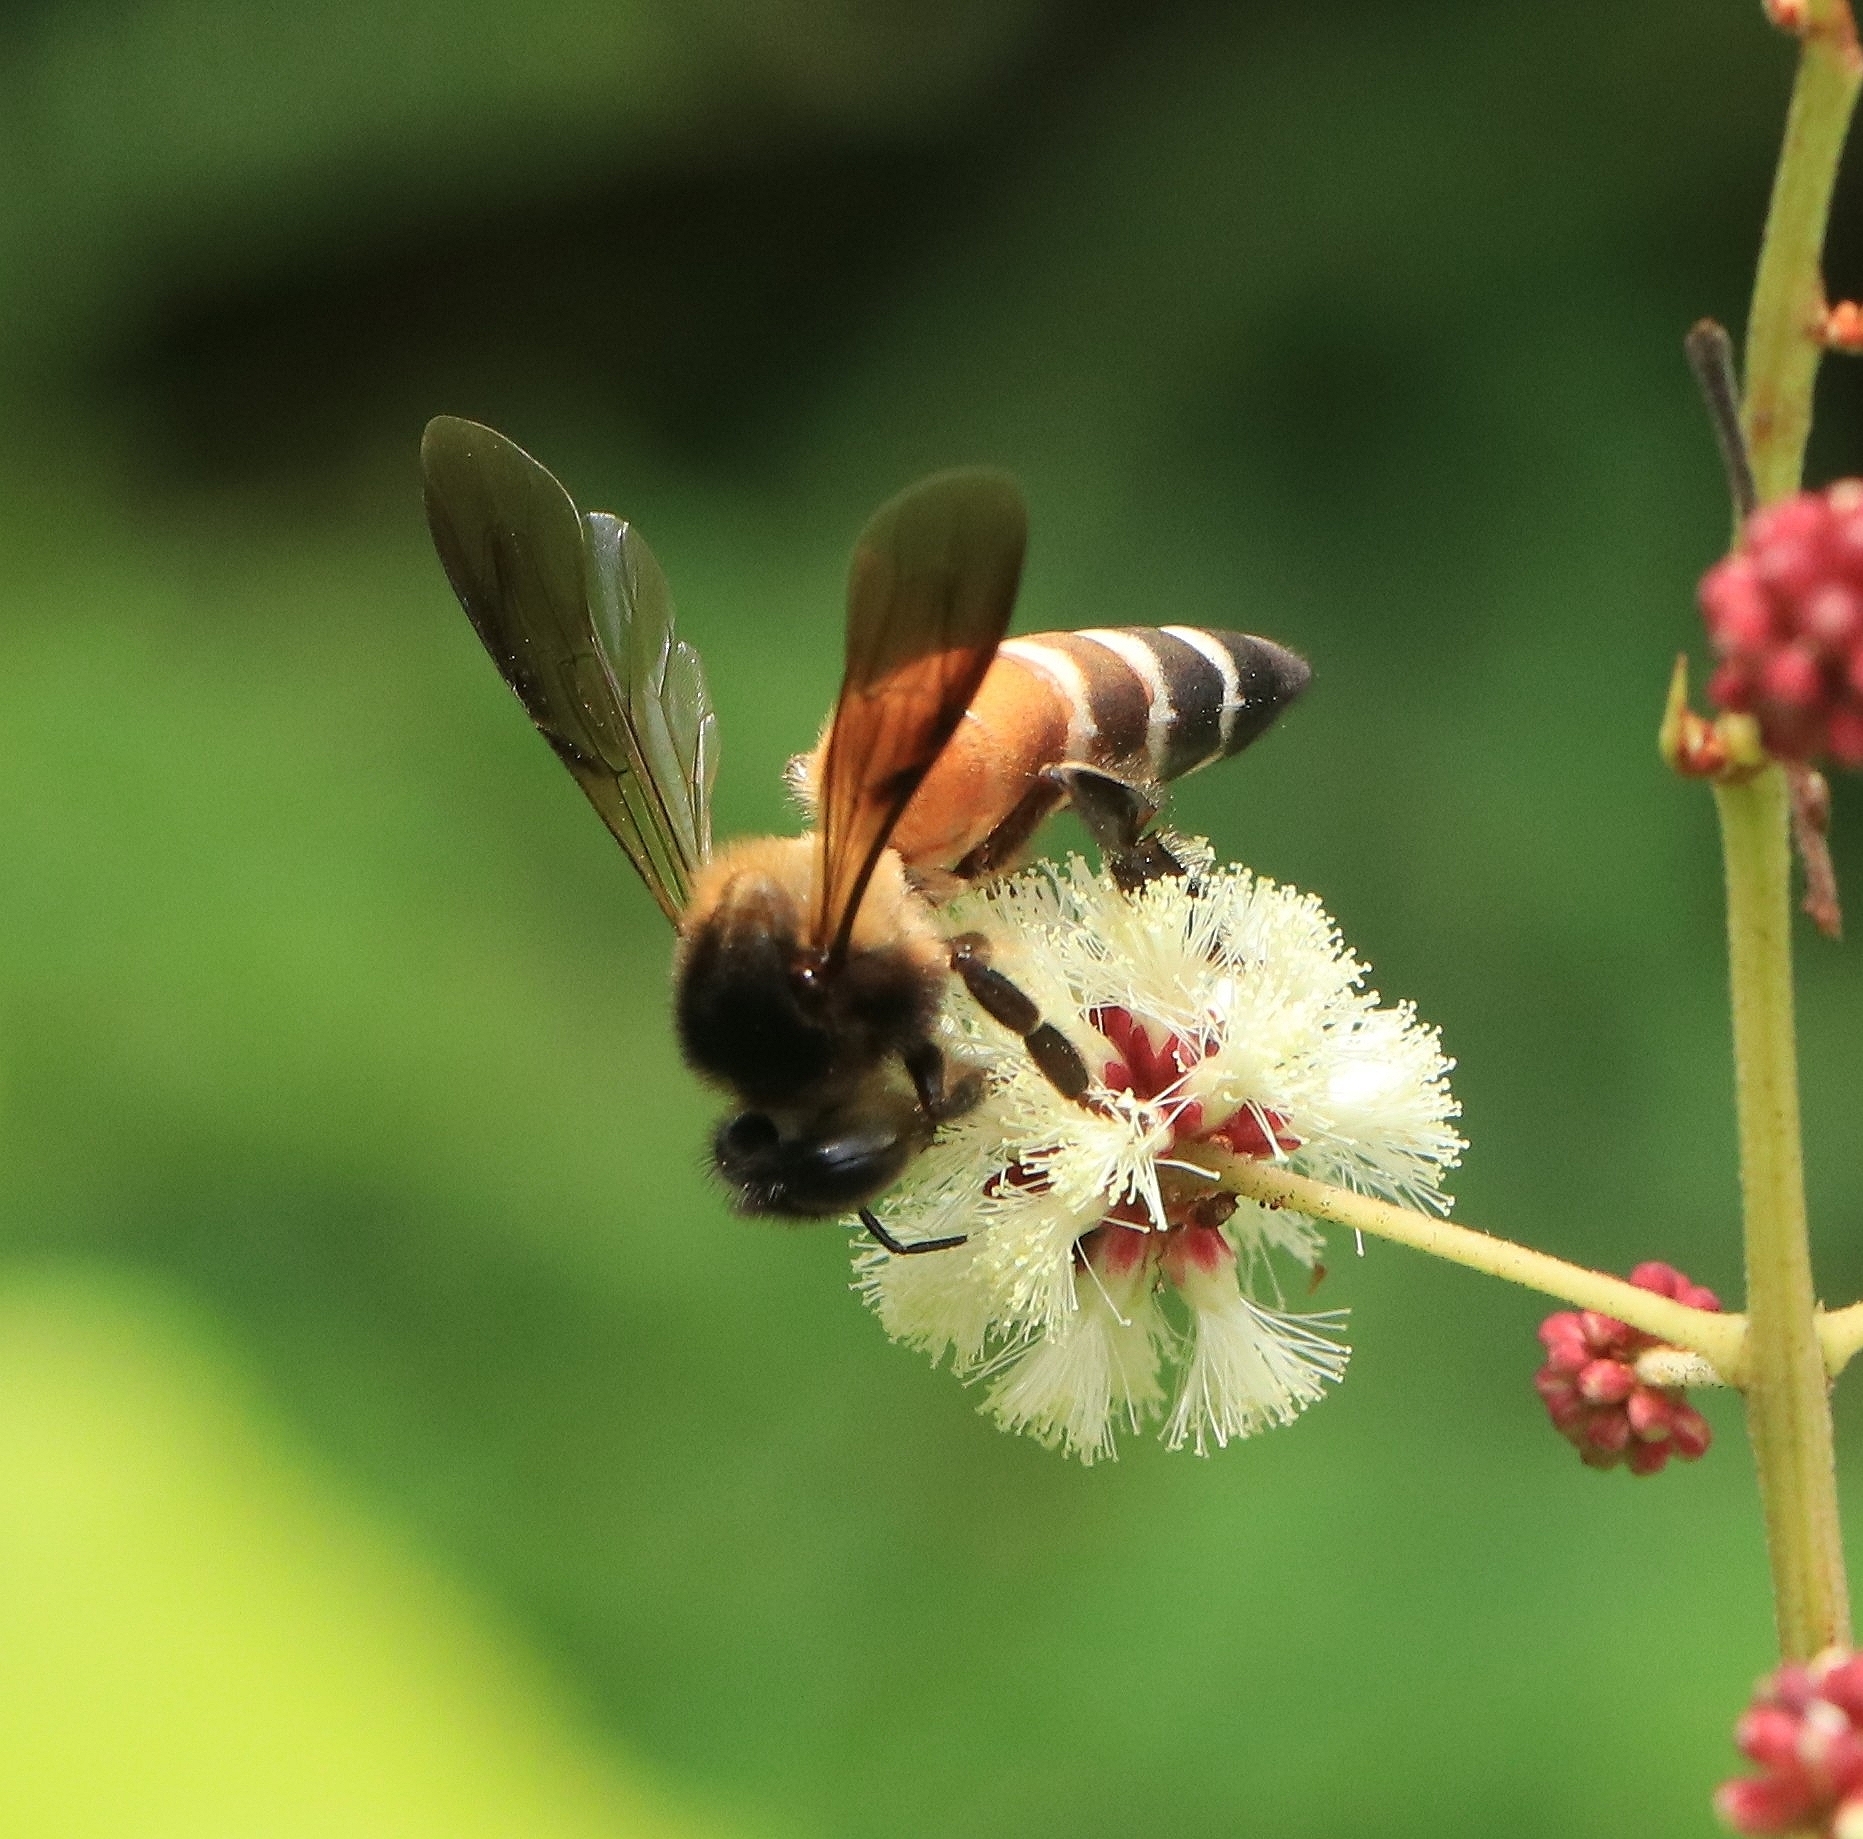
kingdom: Animalia
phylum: Arthropoda
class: Insecta
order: Hymenoptera
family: Apidae
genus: Apis
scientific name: Apis dorsata
